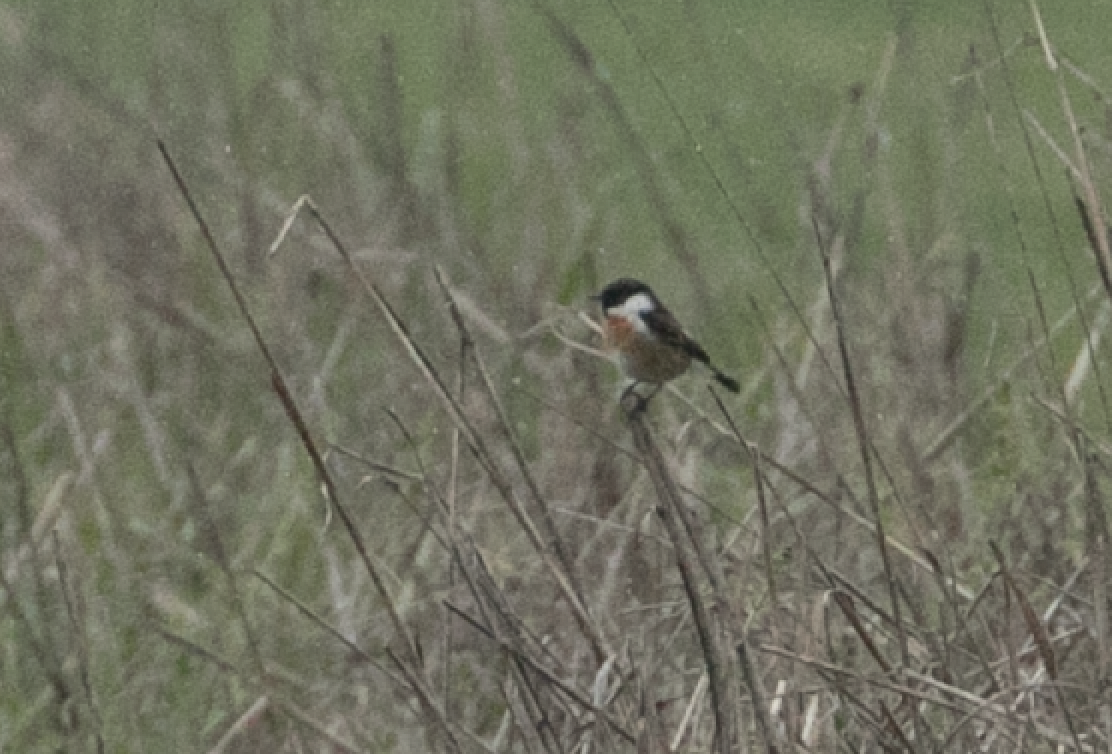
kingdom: Animalia
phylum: Chordata
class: Aves
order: Passeriformes
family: Muscicapidae
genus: Saxicola
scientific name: Saxicola rubicola
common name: European stonechat
